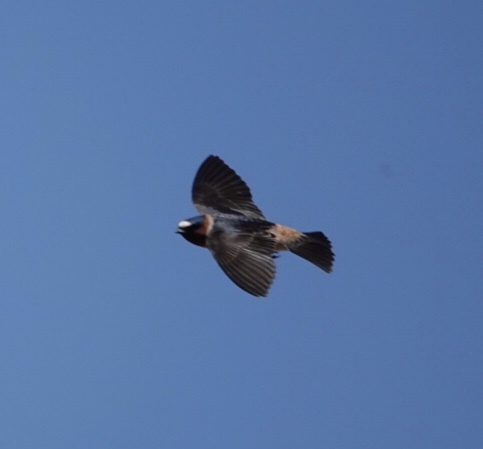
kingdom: Animalia
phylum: Chordata
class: Aves
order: Passeriformes
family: Hirundinidae
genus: Petrochelidon
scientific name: Petrochelidon pyrrhonota
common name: American cliff swallow
